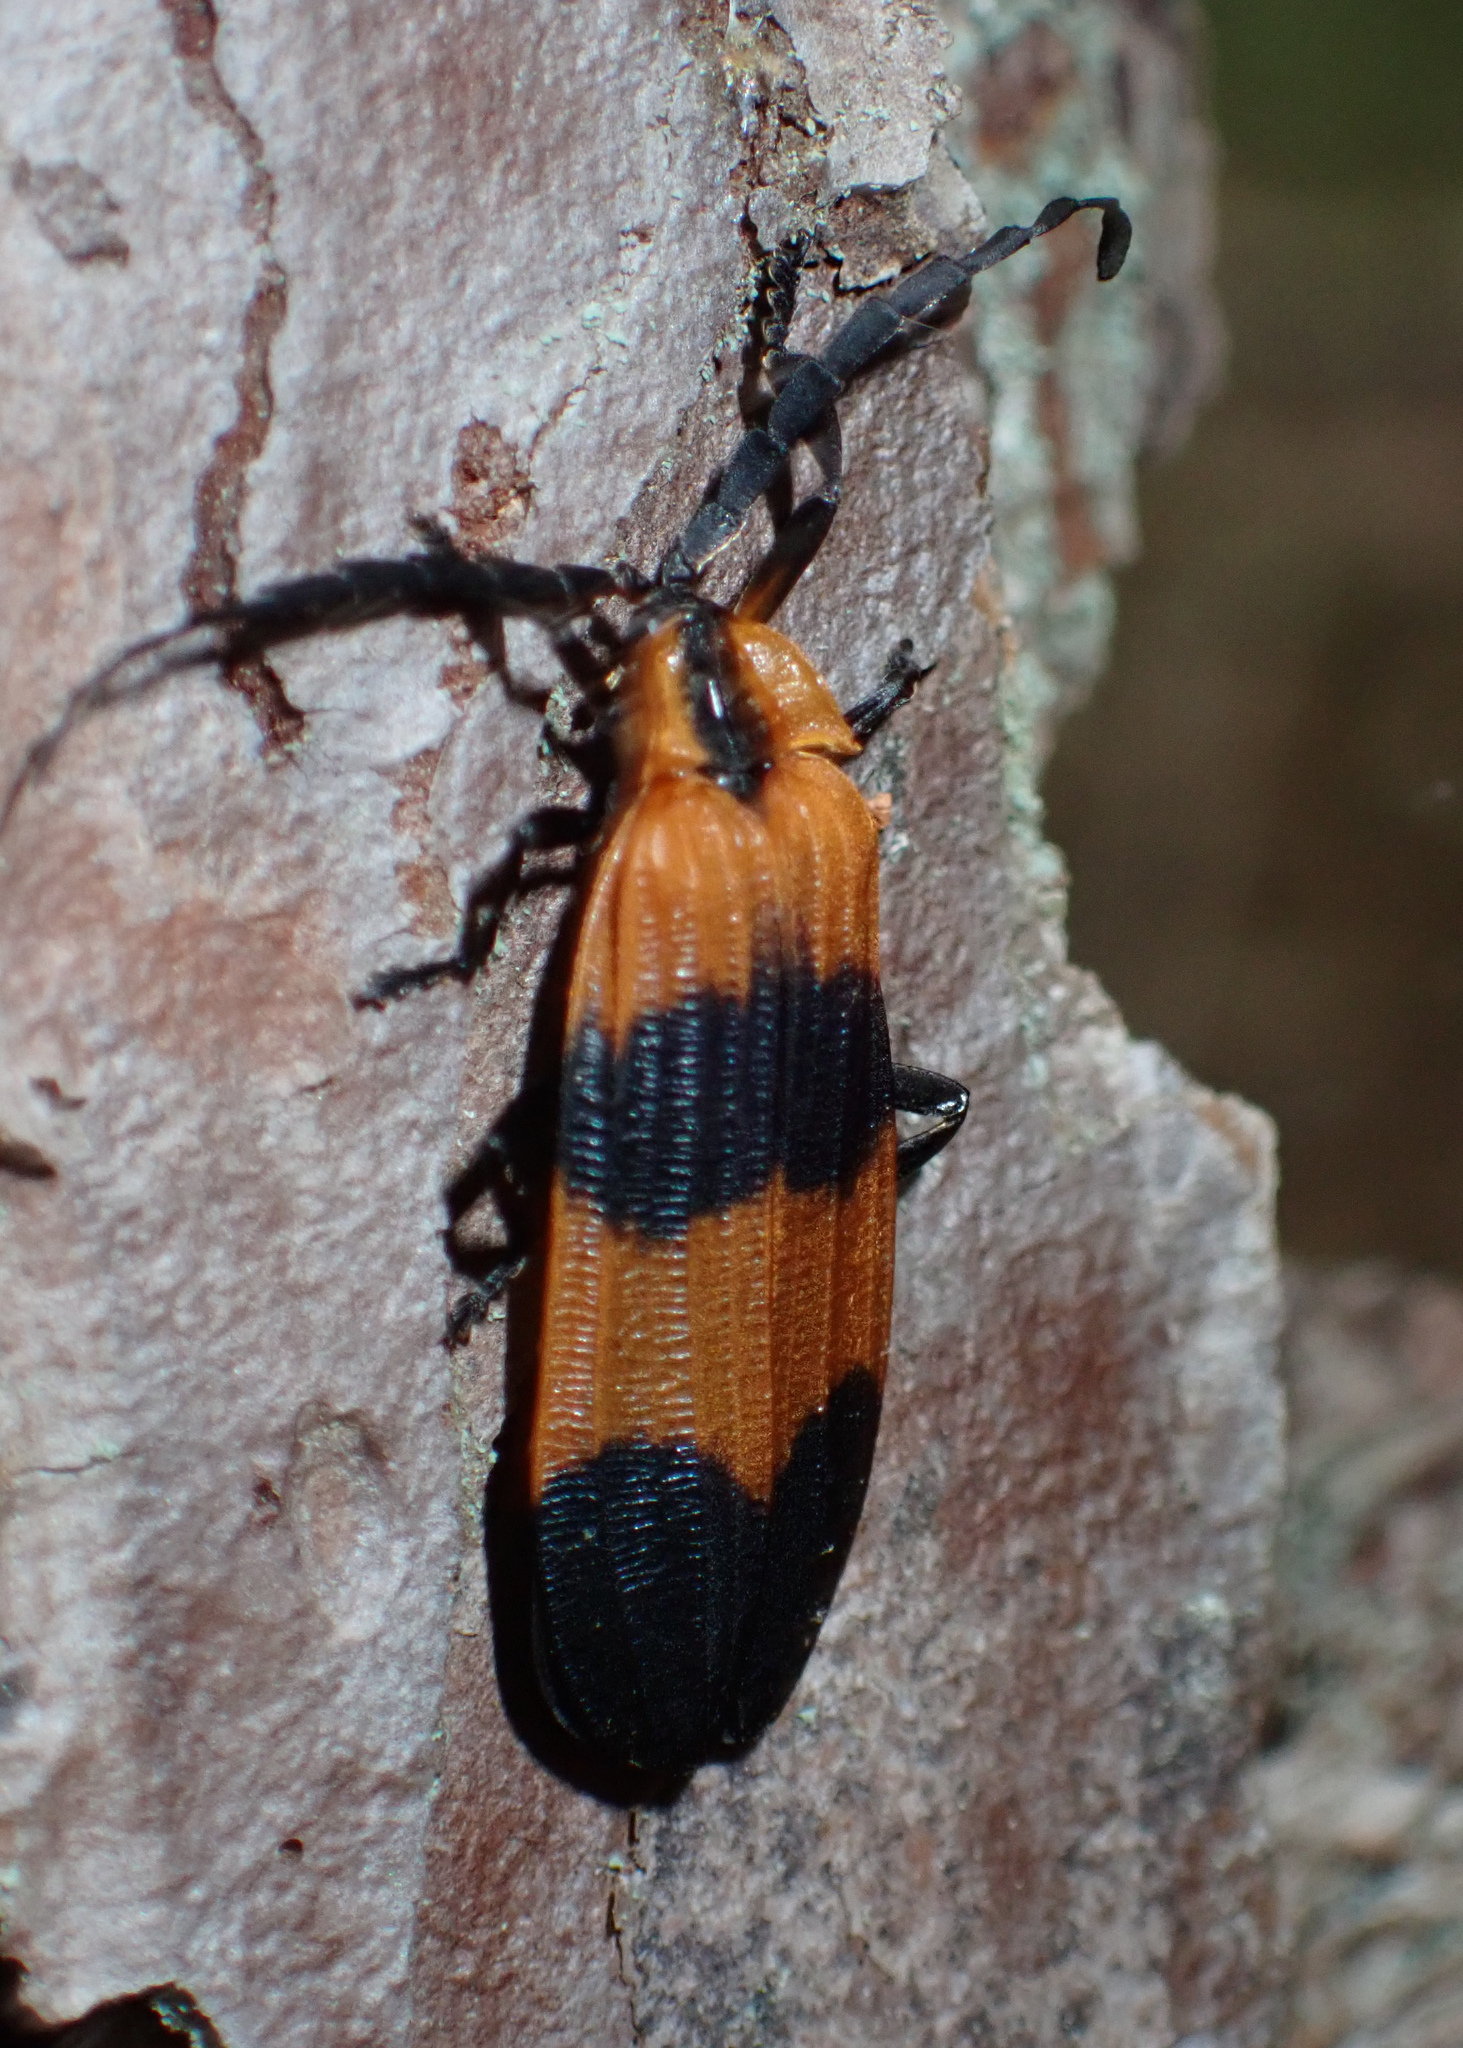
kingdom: Animalia
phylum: Arthropoda
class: Insecta
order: Coleoptera
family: Lycidae
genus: Calopteron
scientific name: Calopteron reticulatum
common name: Banded net-winged beetle
